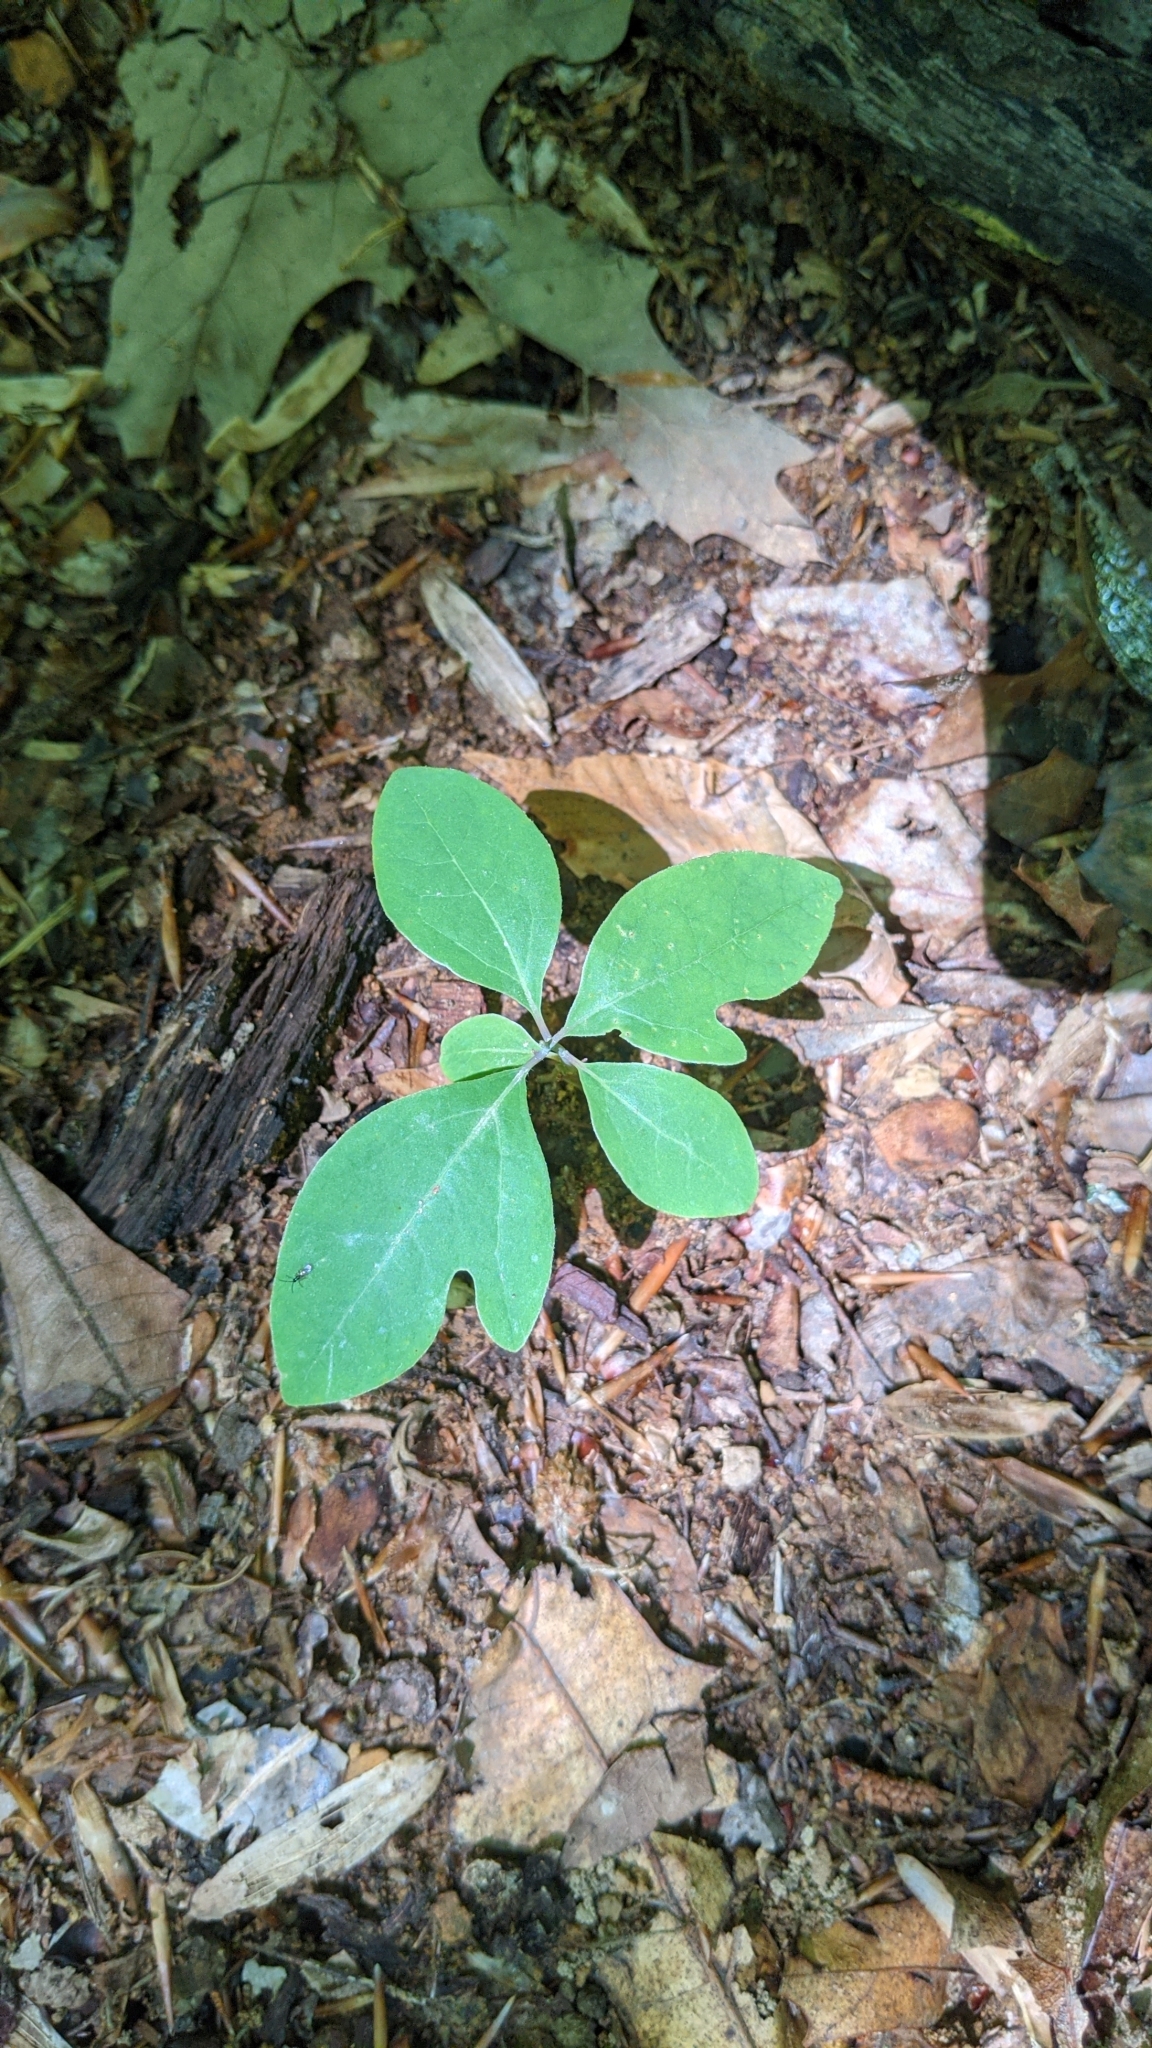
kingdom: Plantae
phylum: Tracheophyta
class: Magnoliopsida
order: Laurales
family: Lauraceae
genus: Sassafras
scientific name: Sassafras albidum
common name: Sassafras
